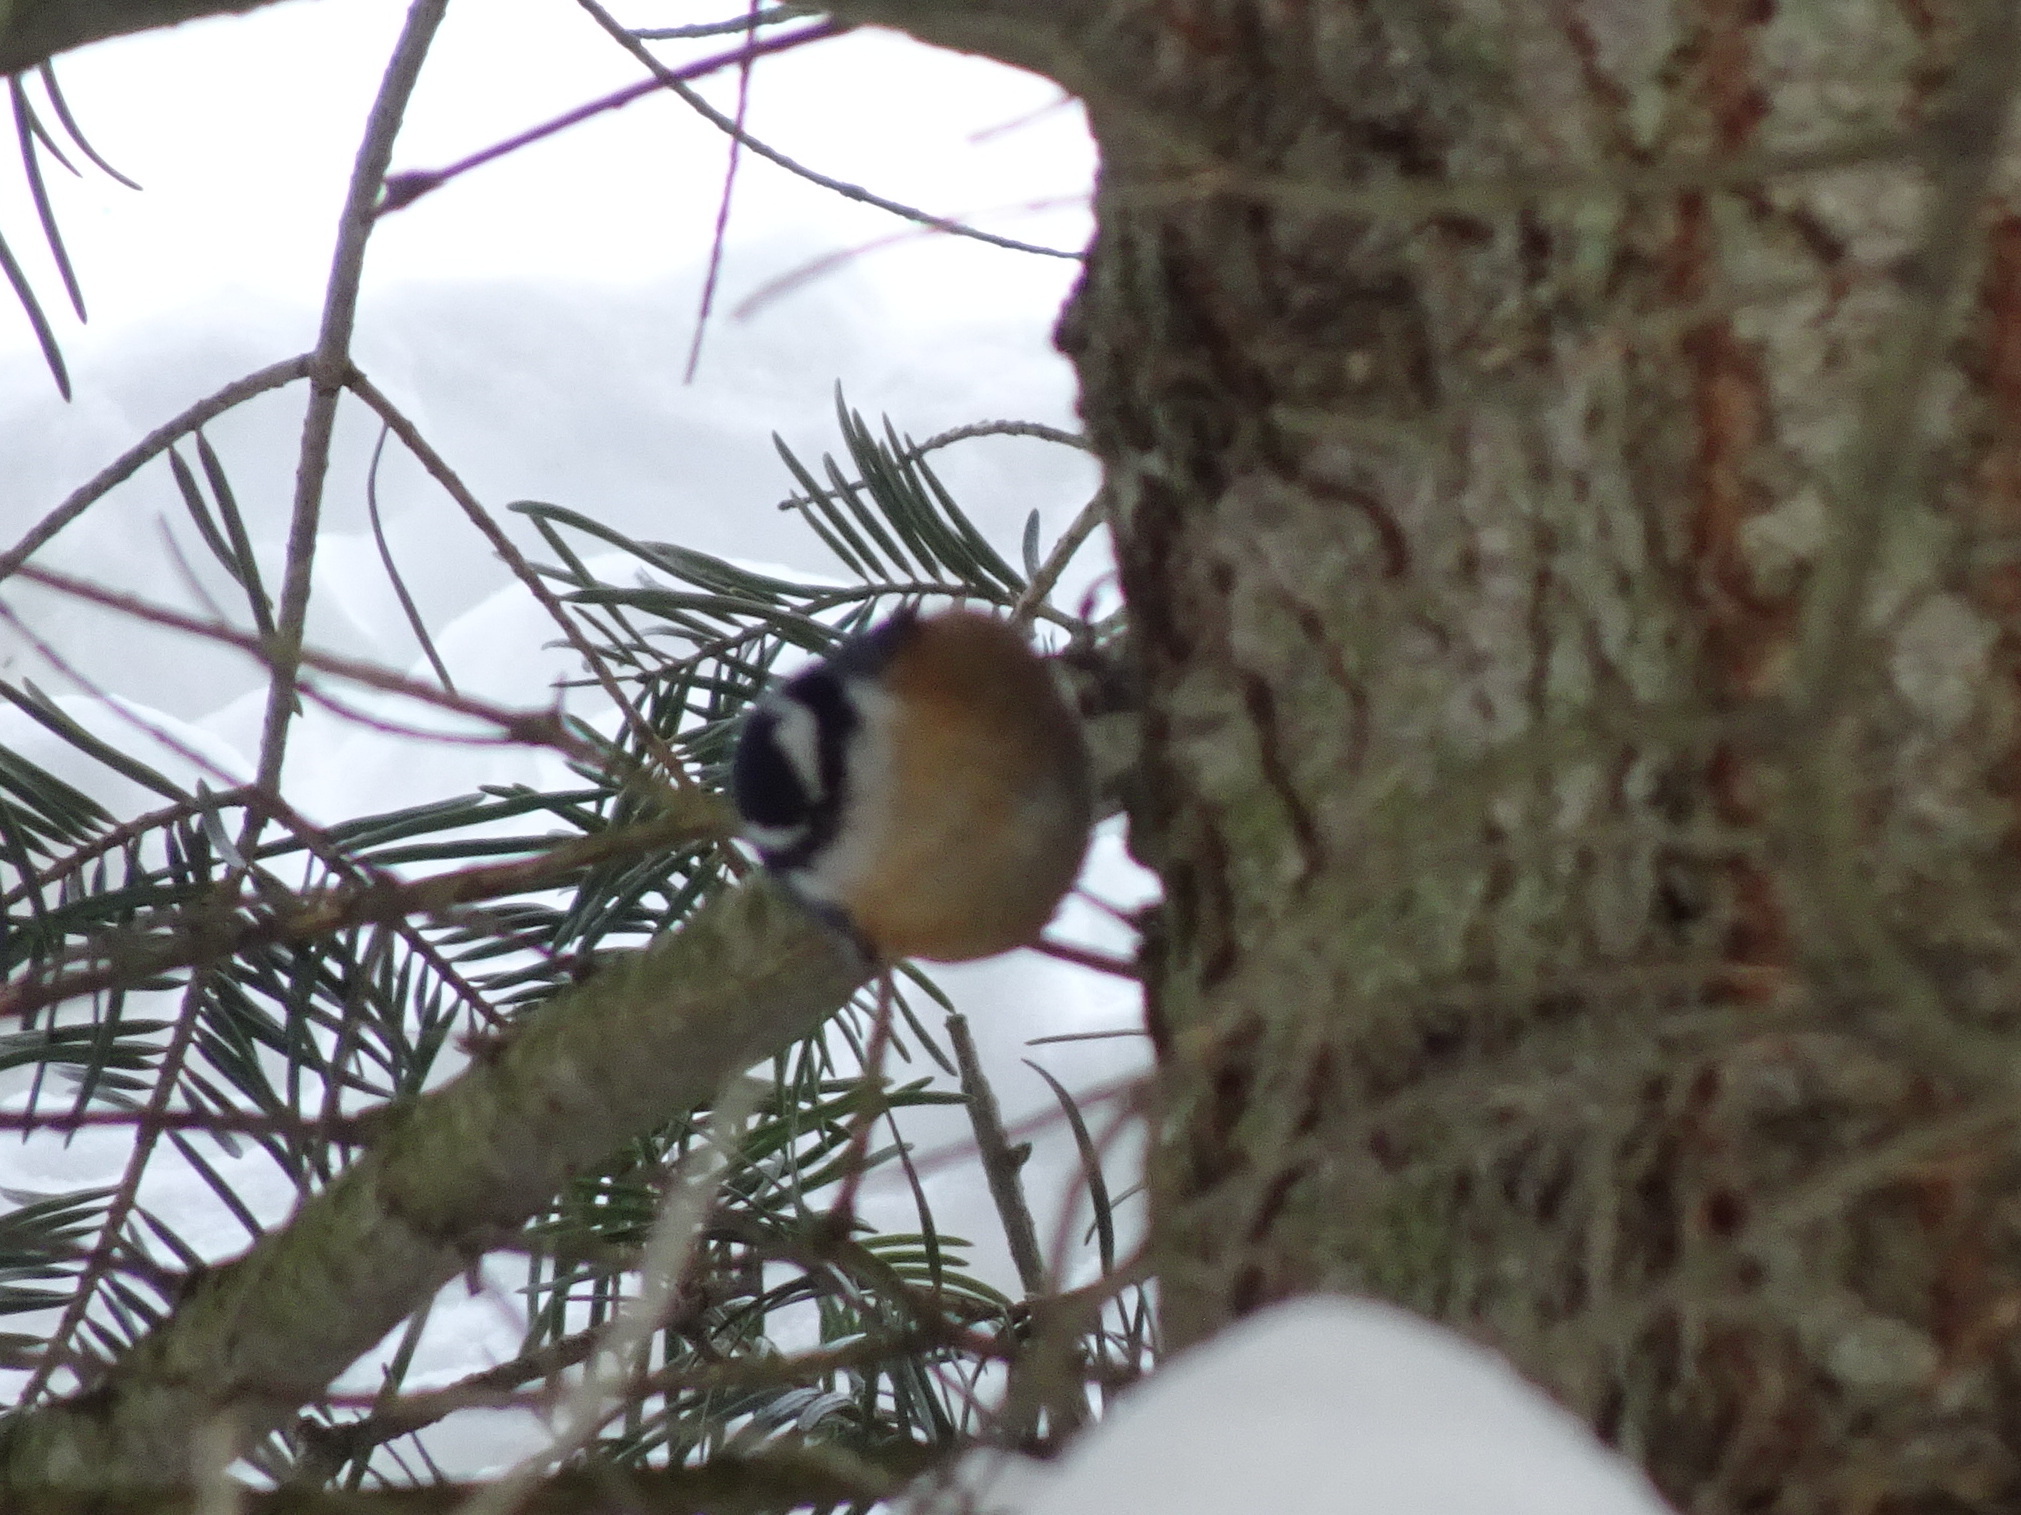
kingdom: Animalia
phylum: Chordata
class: Aves
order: Passeriformes
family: Sittidae
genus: Sitta
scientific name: Sitta canadensis
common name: Red-breasted nuthatch
